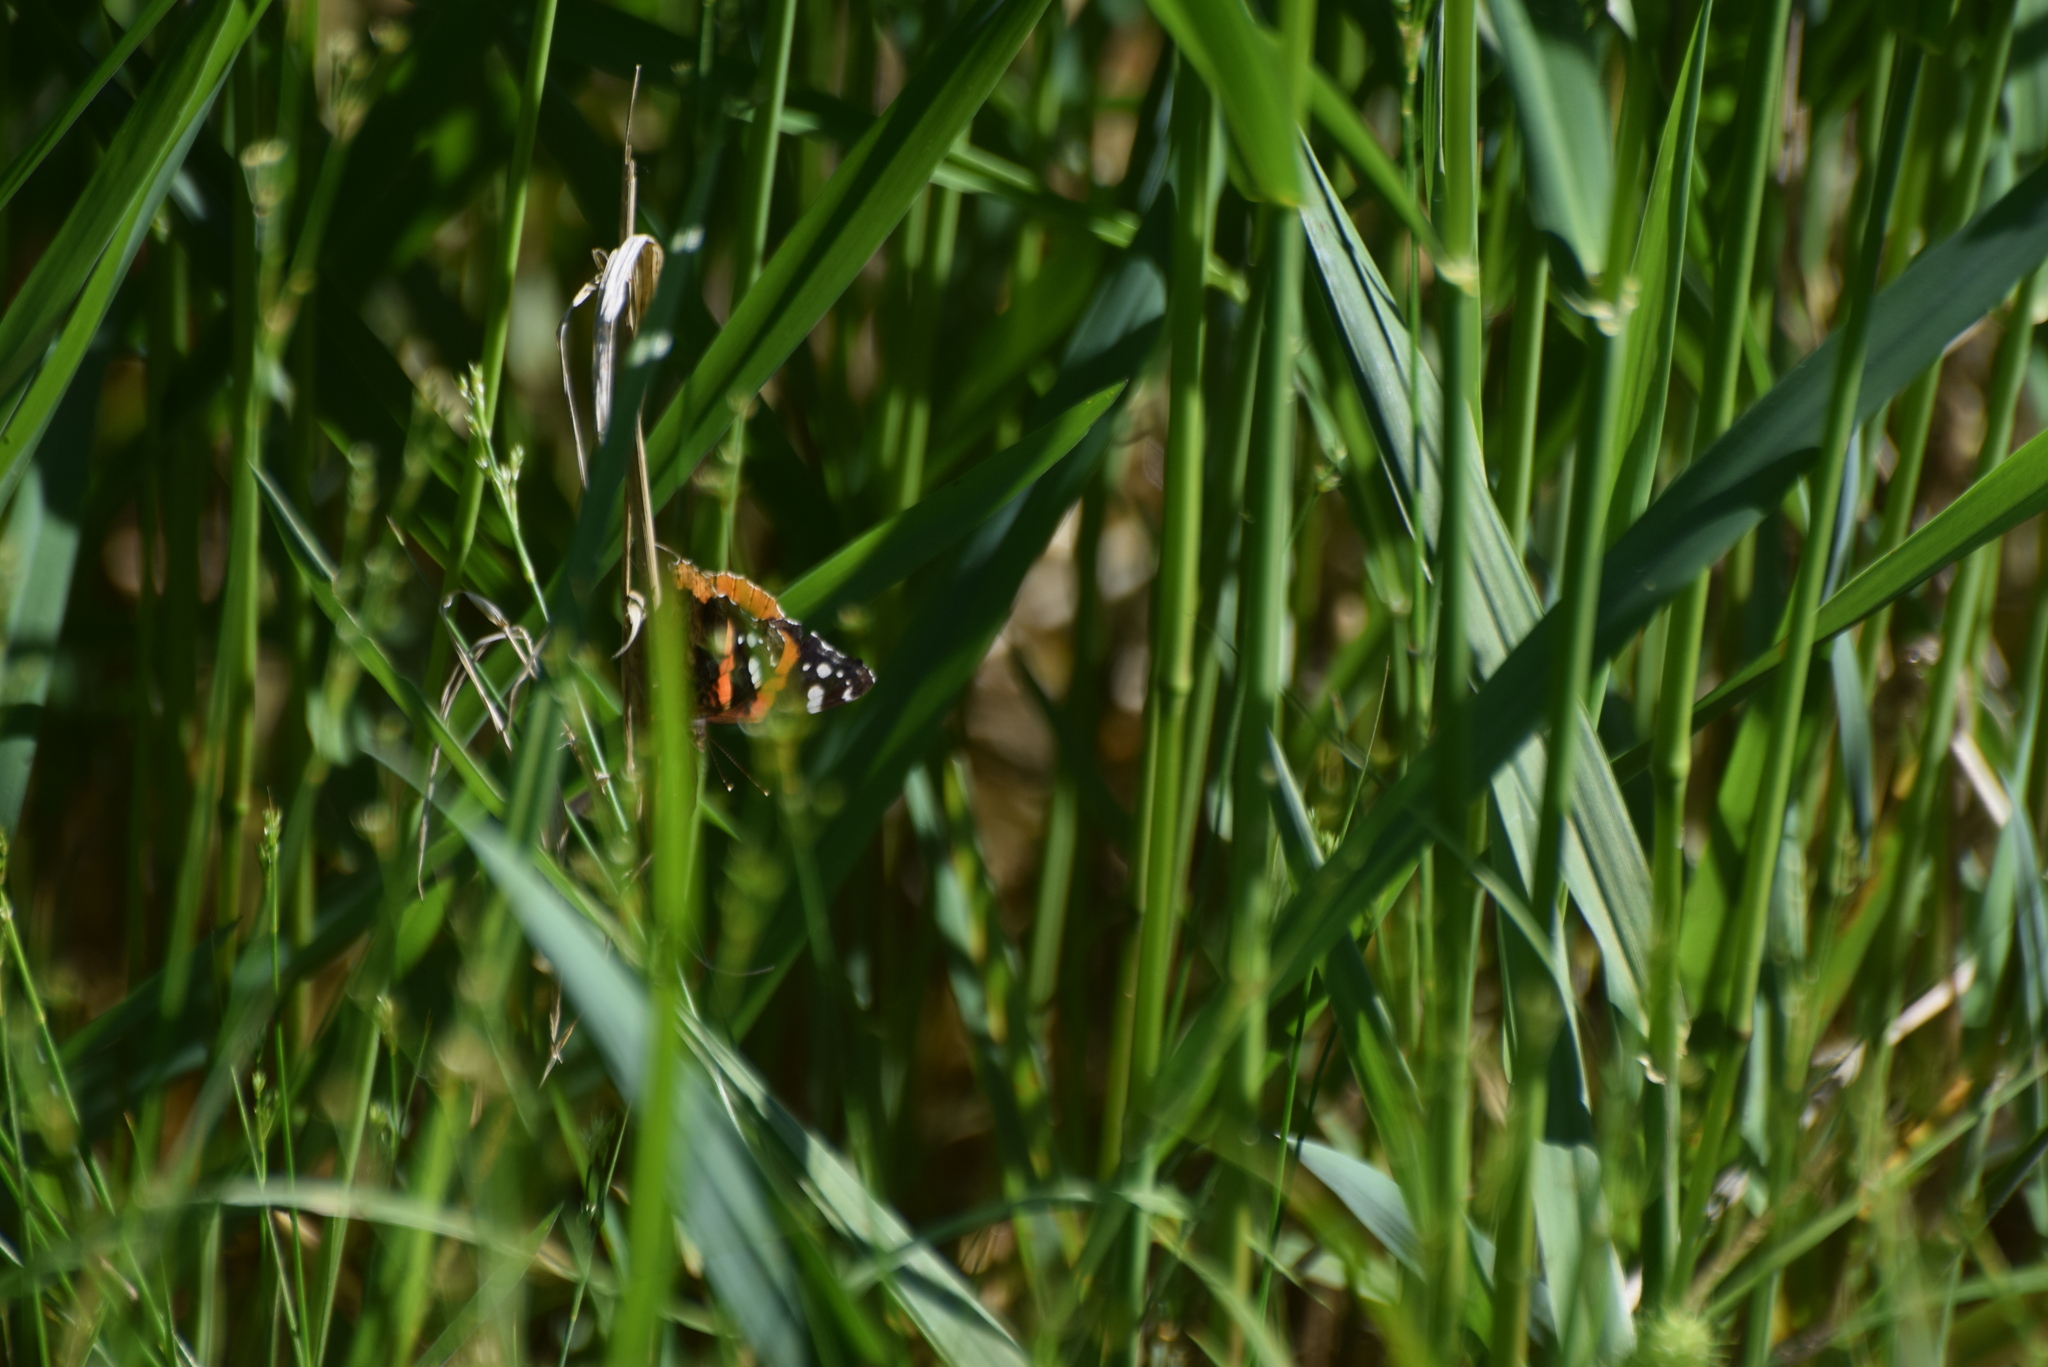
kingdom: Animalia
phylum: Arthropoda
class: Insecta
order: Lepidoptera
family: Nymphalidae
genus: Vanessa
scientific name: Vanessa atalanta
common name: Red admiral
